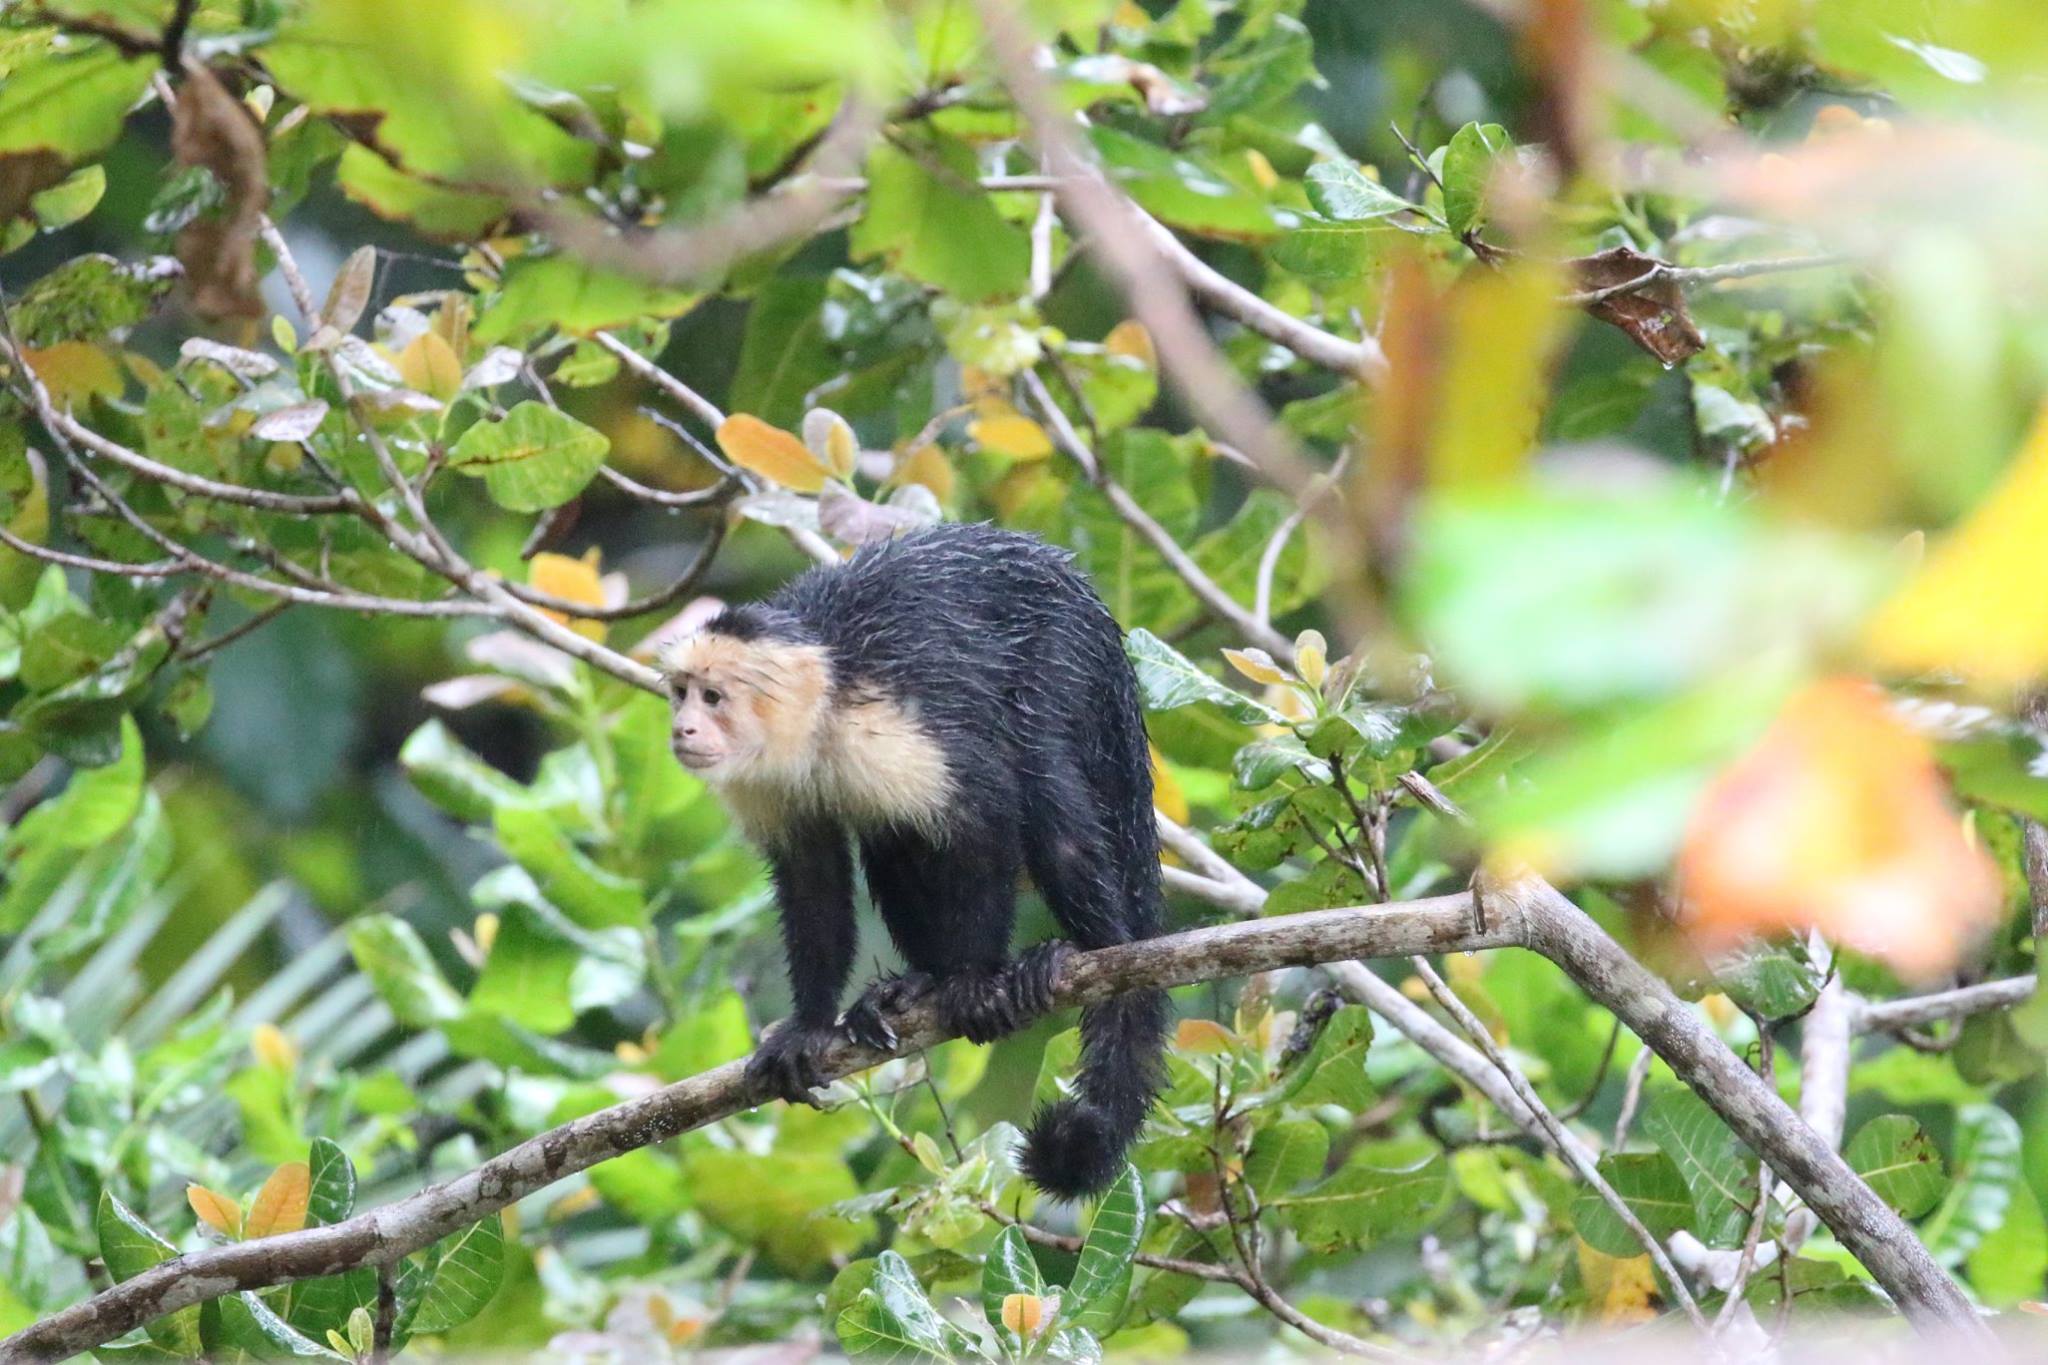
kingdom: Animalia
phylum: Chordata
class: Mammalia
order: Primates
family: Cebidae
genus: Cebus
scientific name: Cebus imitator
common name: Panamanian white-faced capuchin
